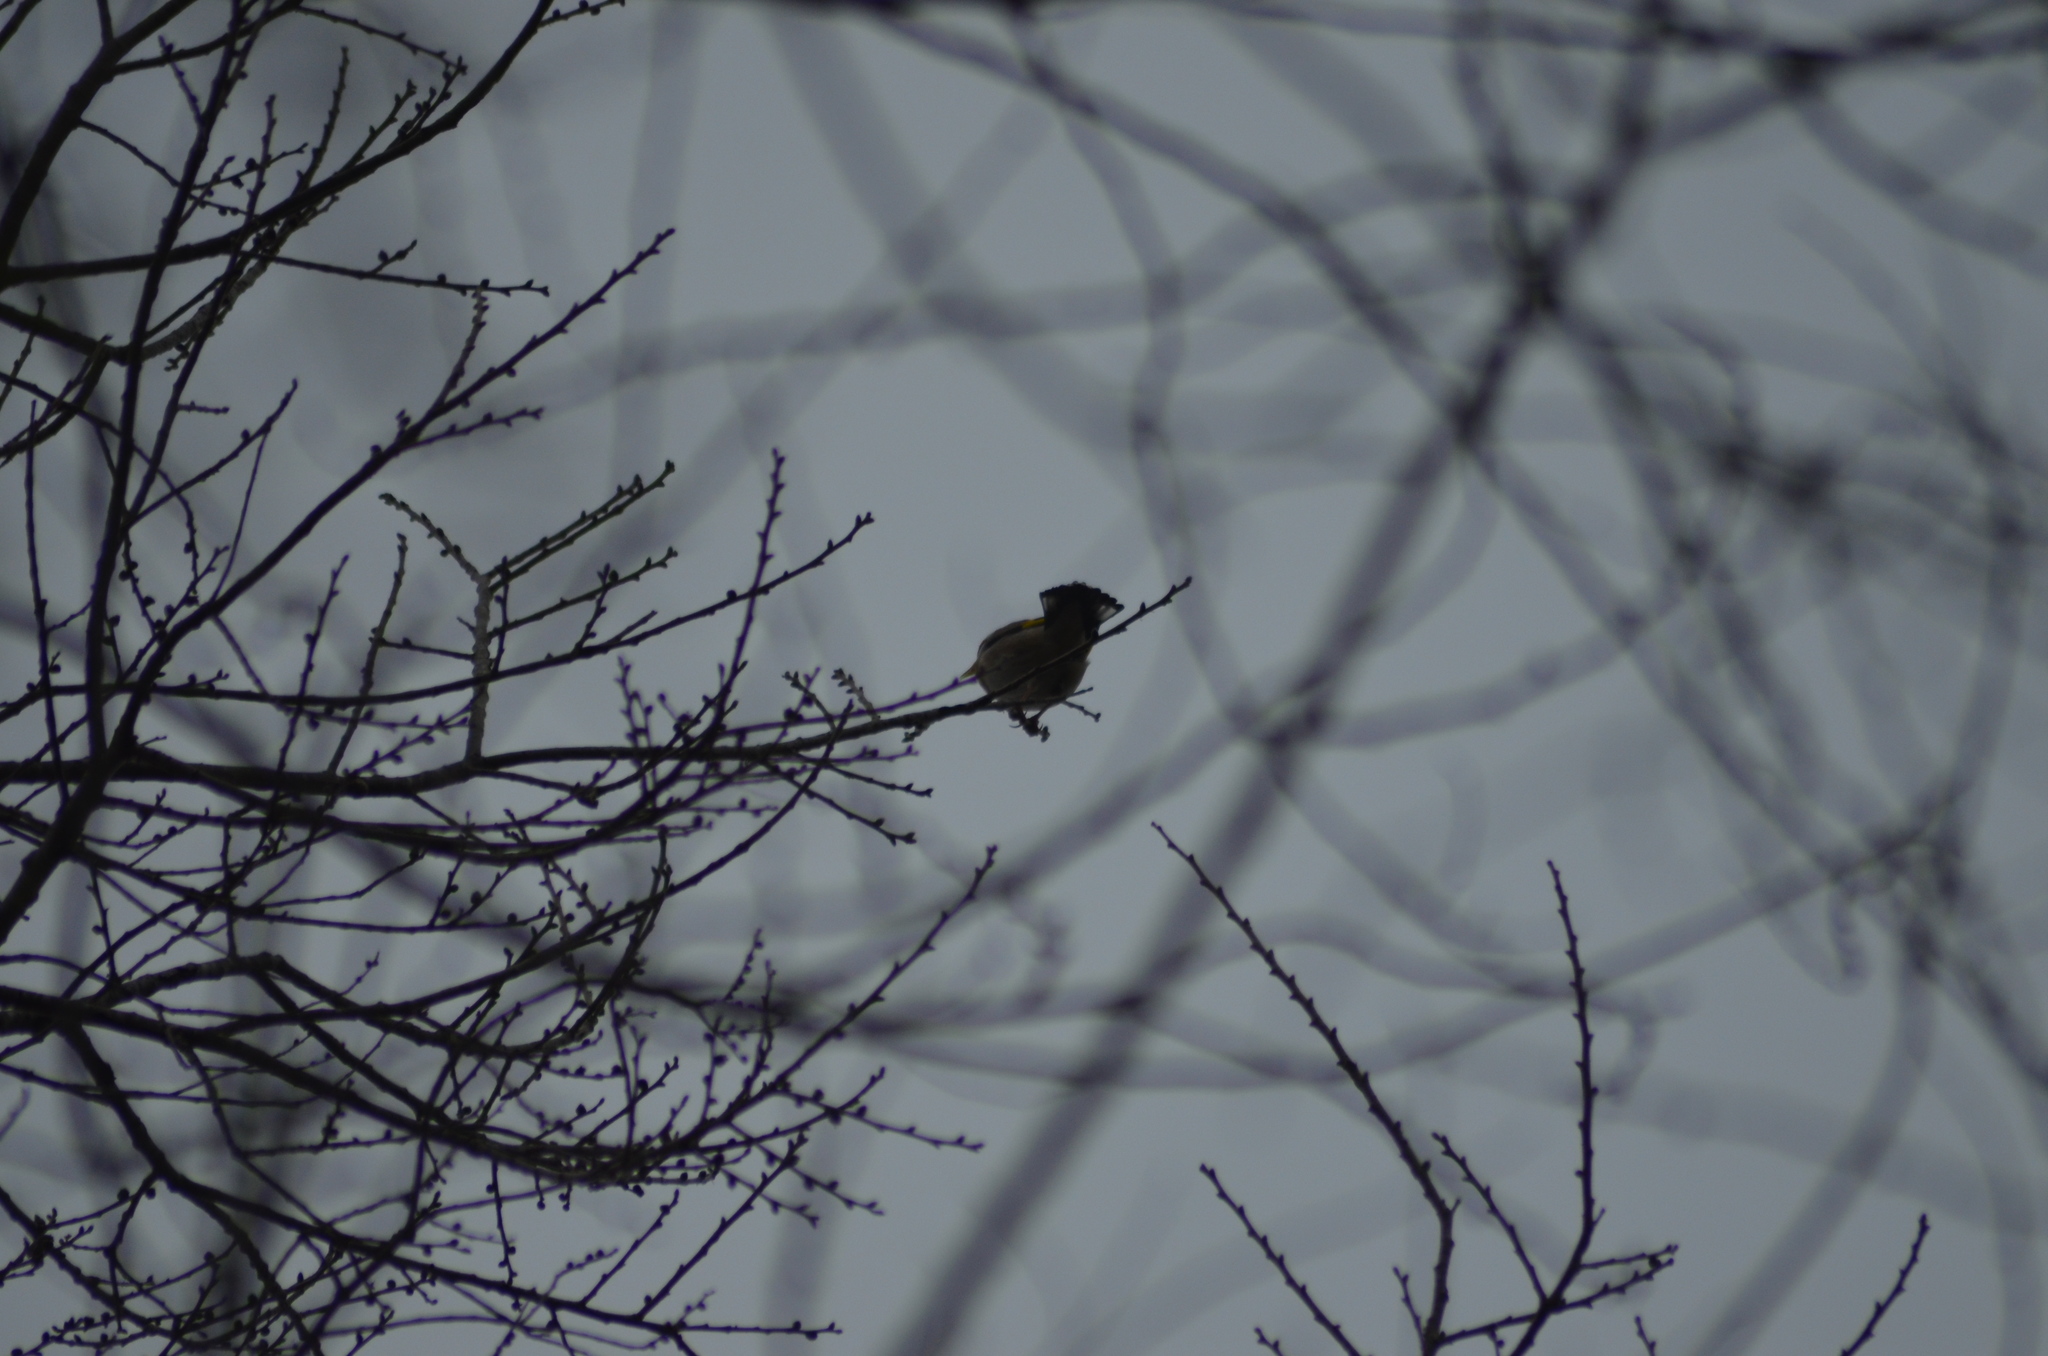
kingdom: Animalia
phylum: Chordata
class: Aves
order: Passeriformes
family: Fringillidae
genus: Carduelis
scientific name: Carduelis carduelis
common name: European goldfinch
